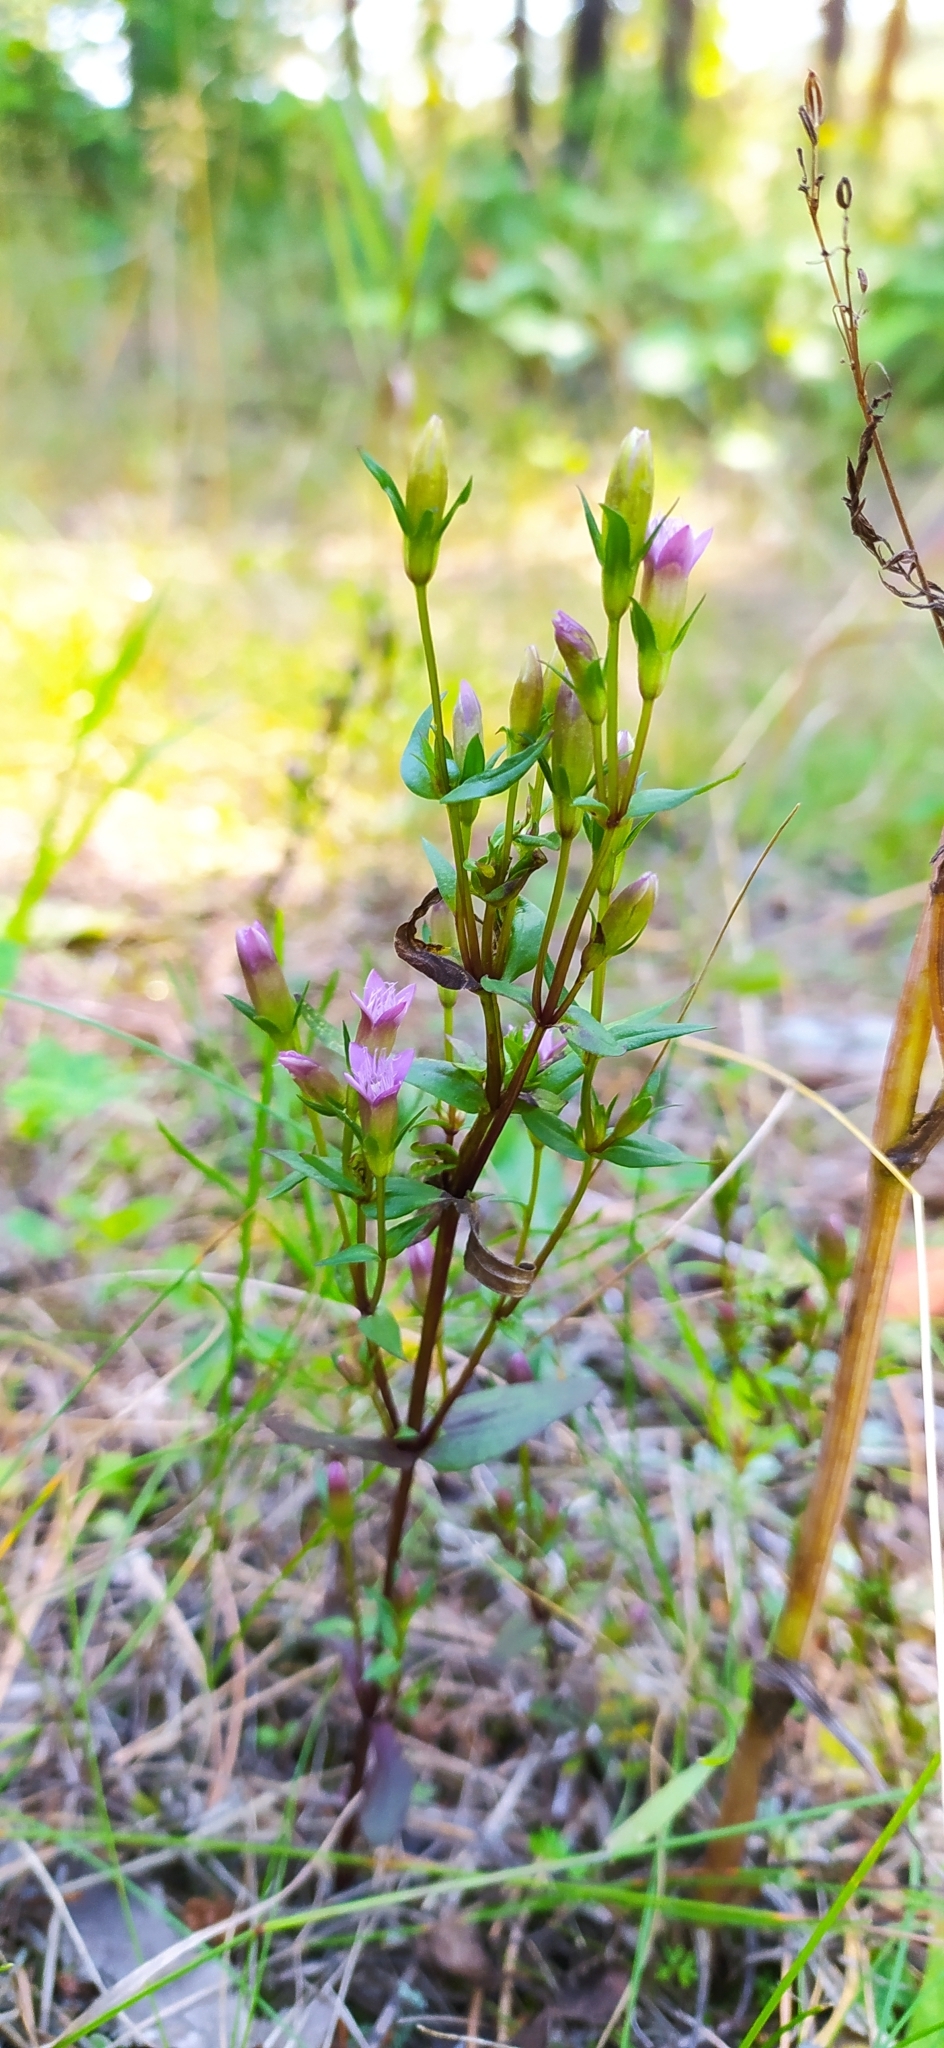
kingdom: Plantae
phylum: Tracheophyta
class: Magnoliopsida
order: Gentianales
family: Gentianaceae
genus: Gentianella
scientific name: Gentianella amarella
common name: Autumn gentian
